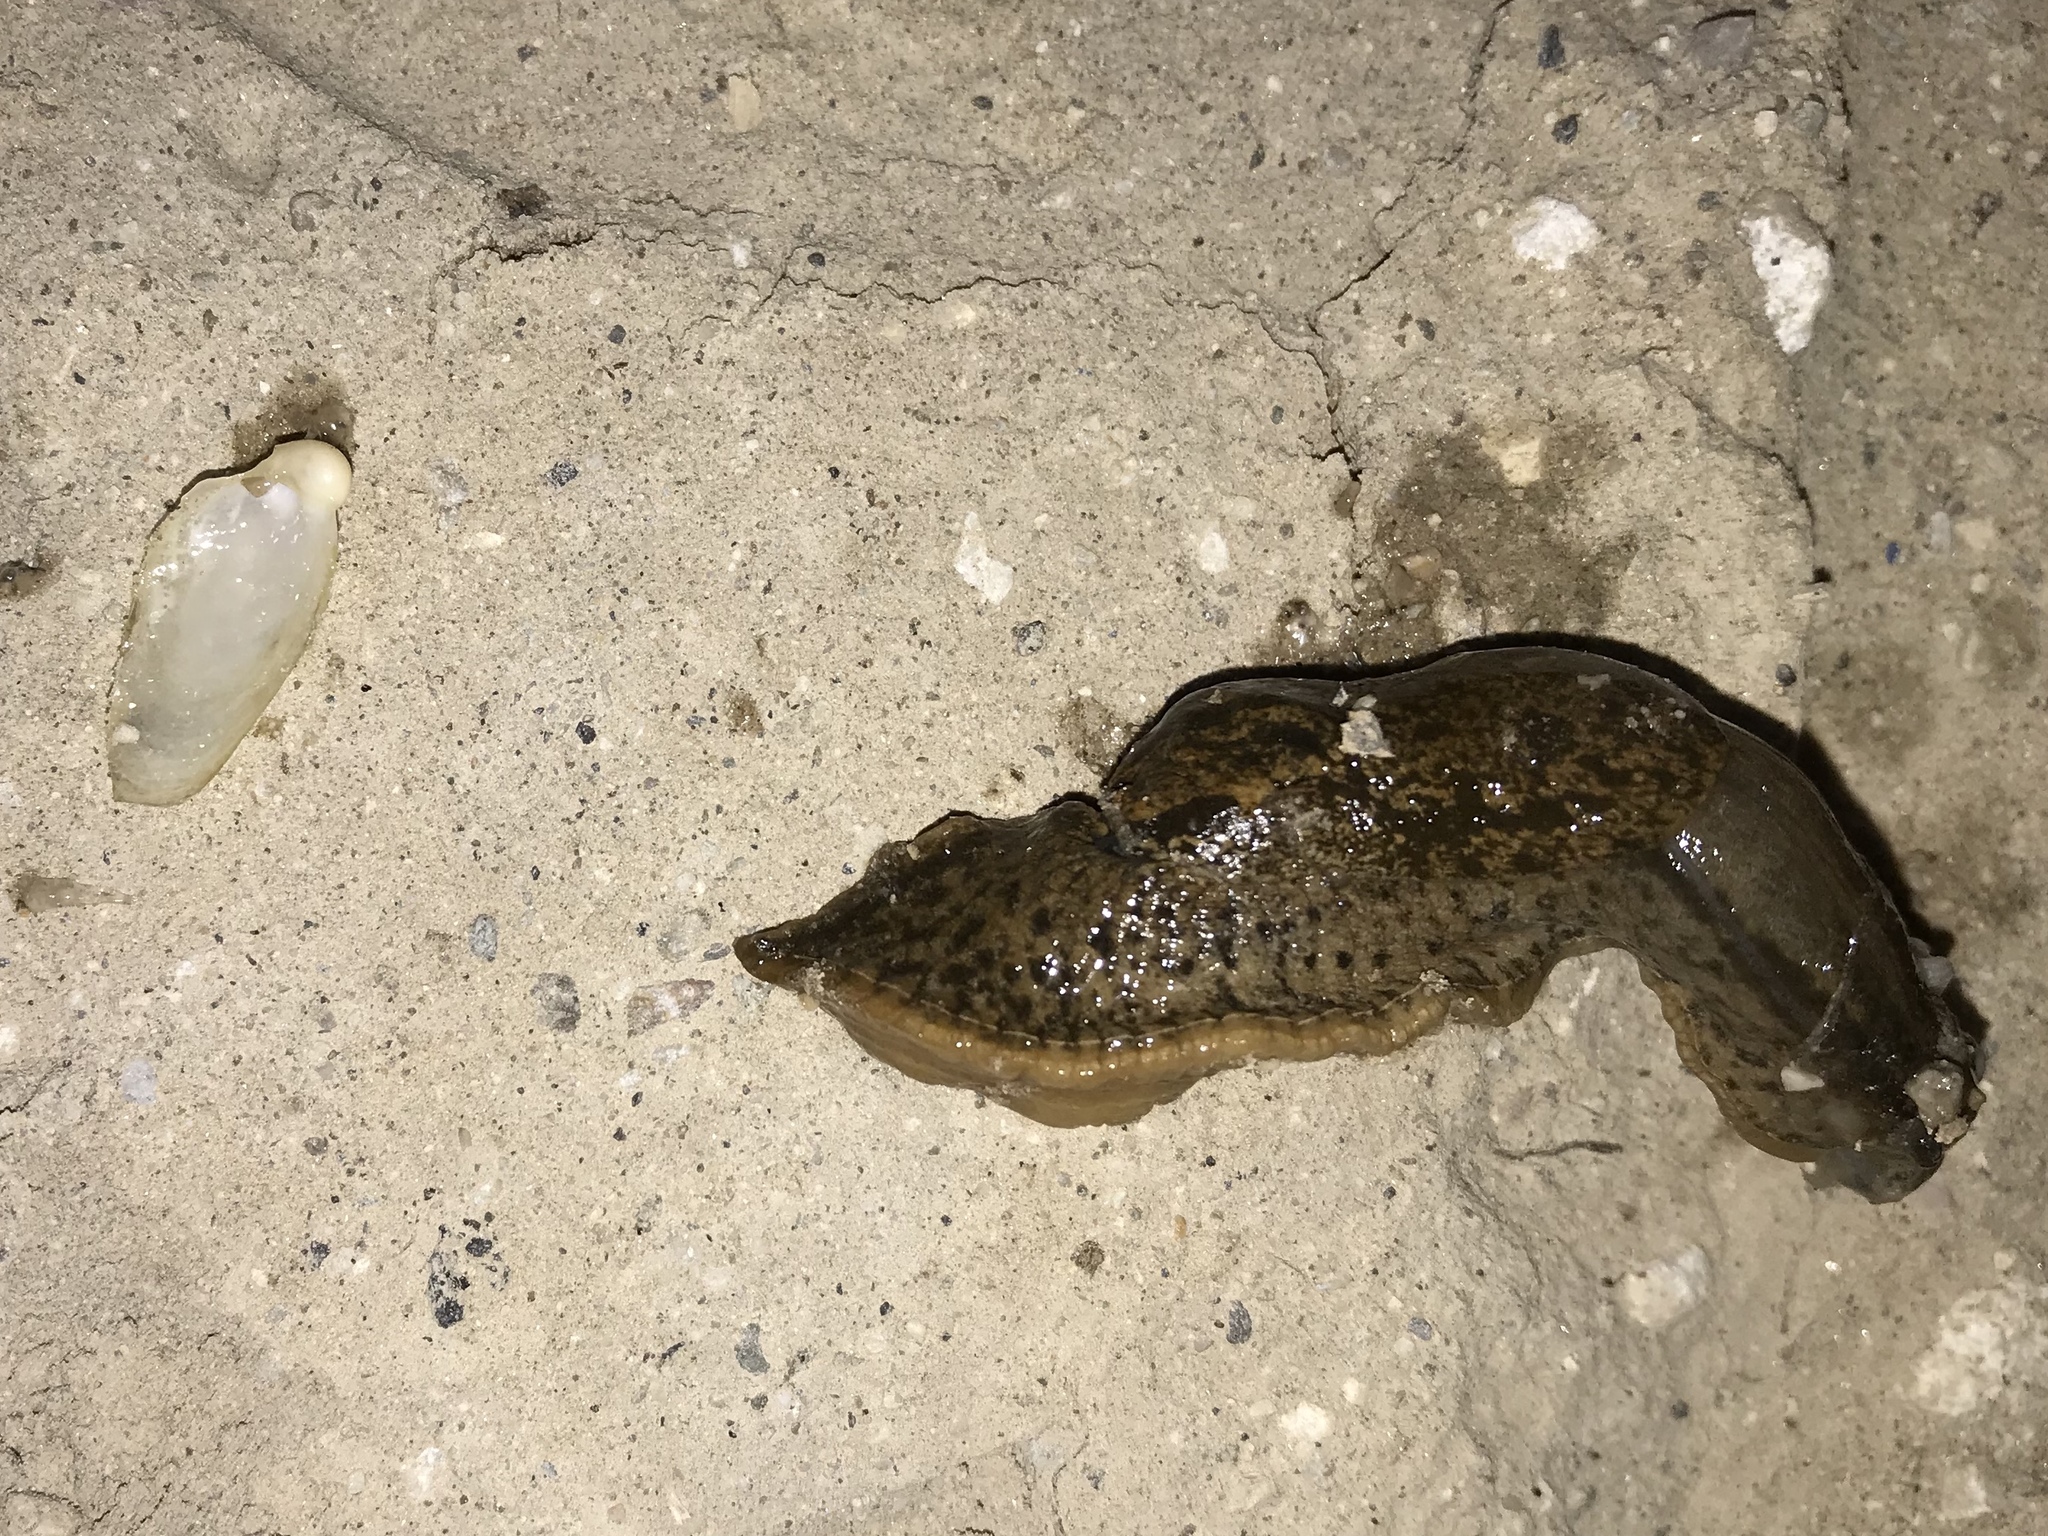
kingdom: Animalia
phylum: Mollusca
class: Gastropoda
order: Stylommatophora
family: Parmacellidae
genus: Candaharia
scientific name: Candaharia rutellum
